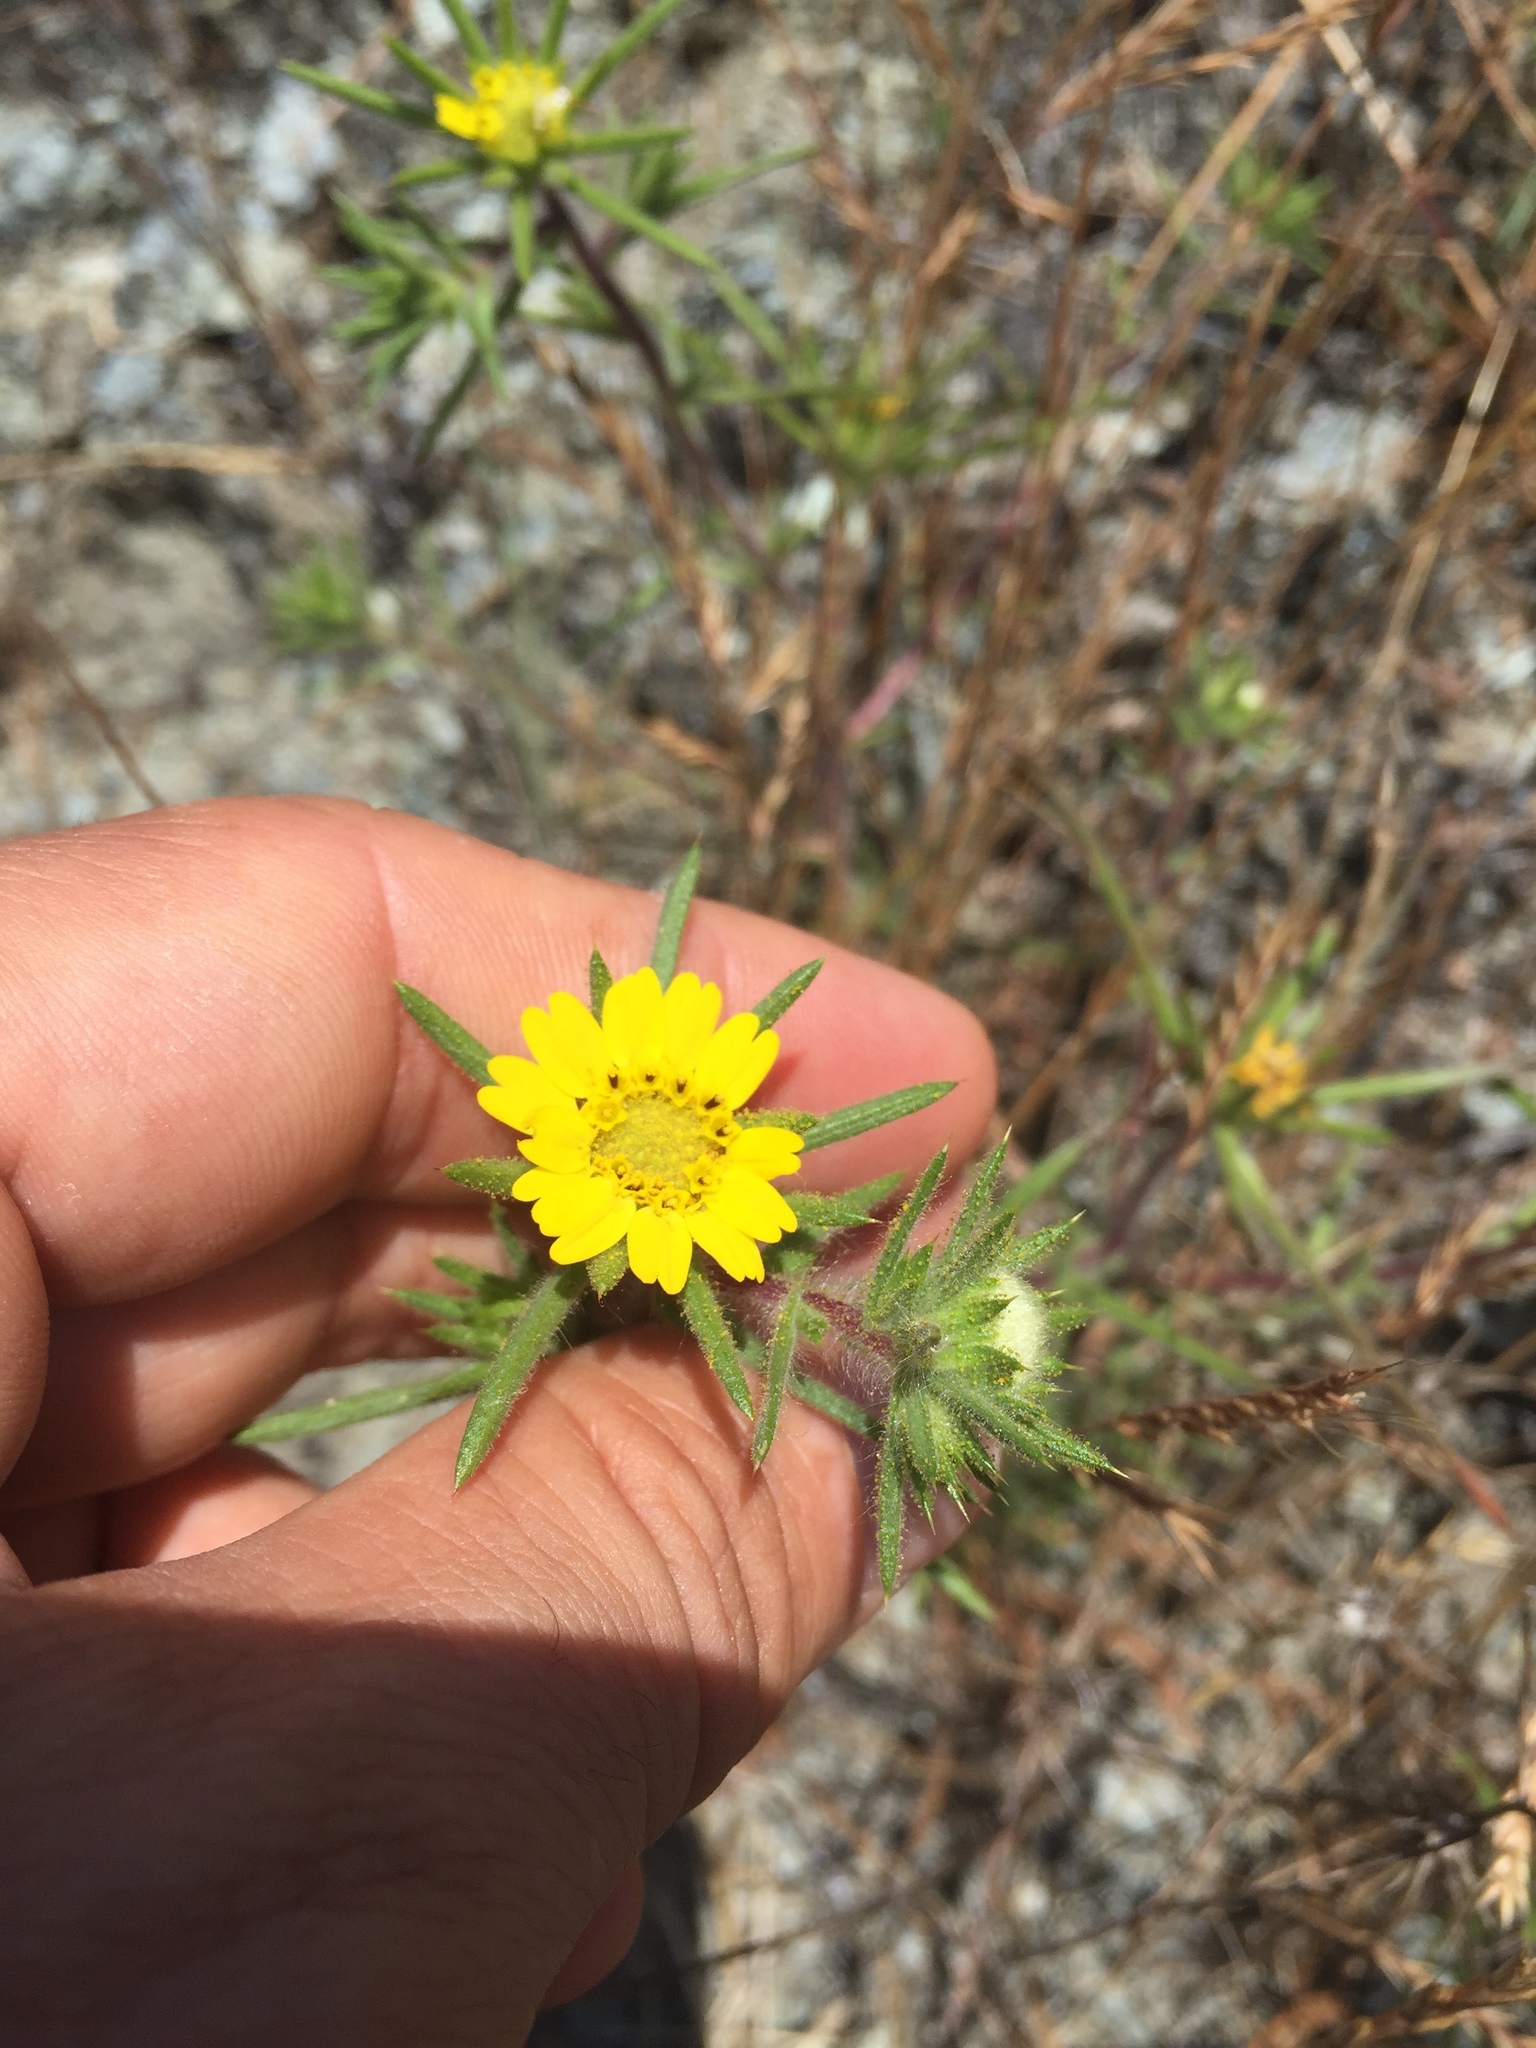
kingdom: Plantae
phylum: Tracheophyta
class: Magnoliopsida
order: Asterales
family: Asteraceae
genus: Centromadia
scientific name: Centromadia fitchii
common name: Fitch's spikeweed
